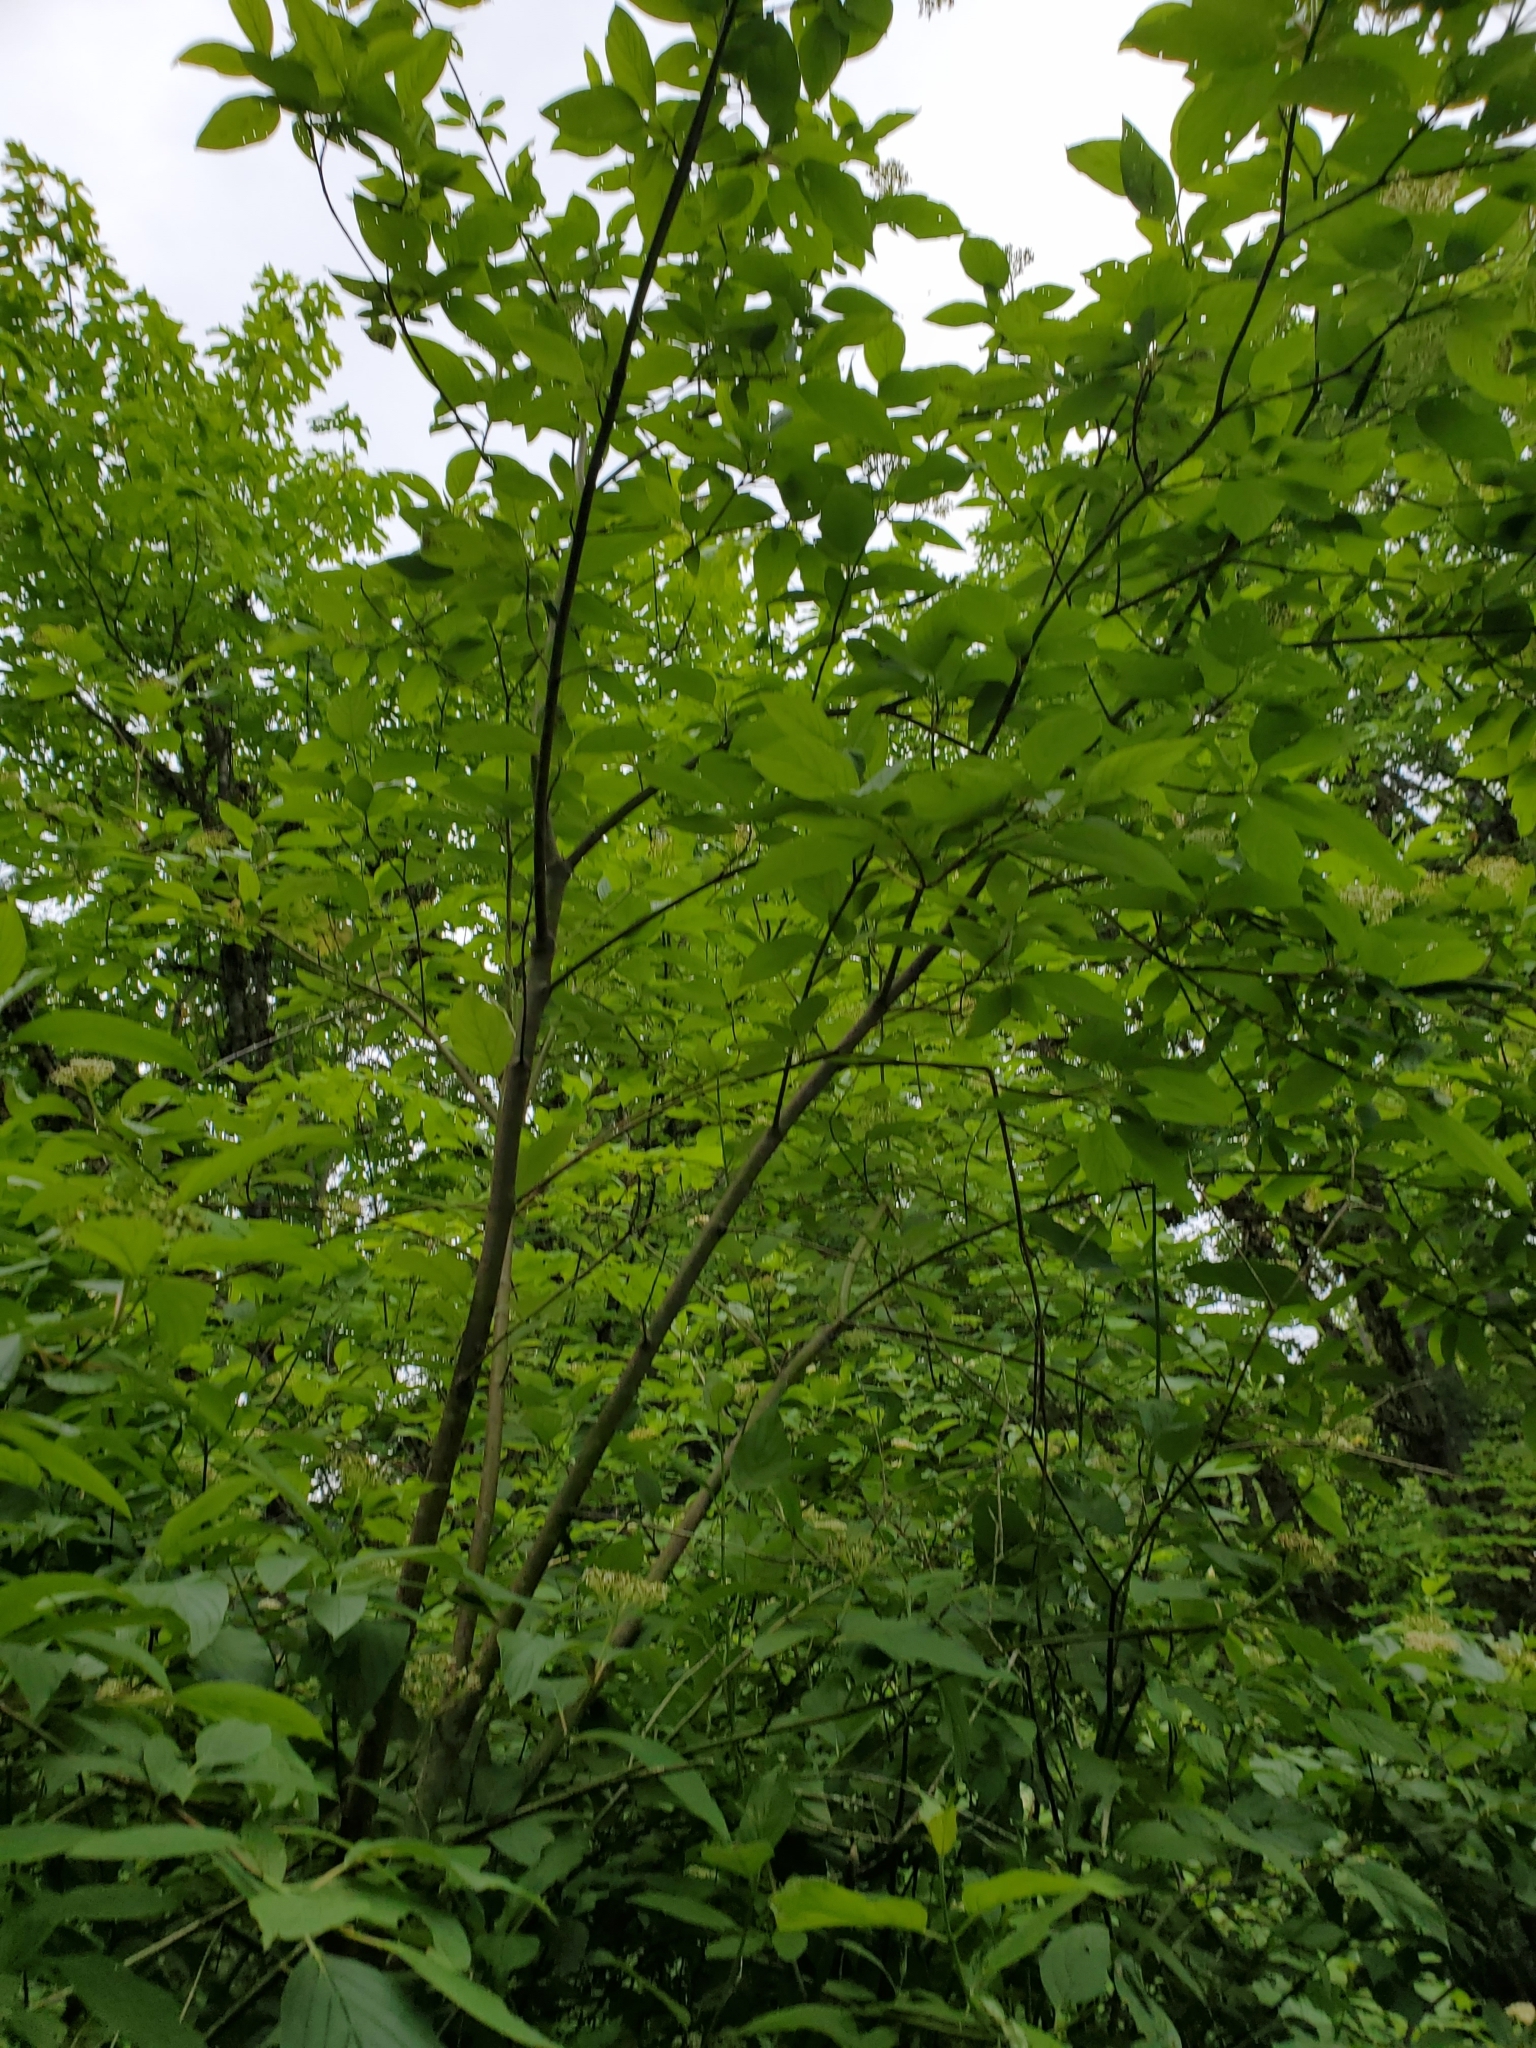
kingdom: Plantae
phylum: Tracheophyta
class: Magnoliopsida
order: Cornales
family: Cornaceae
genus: Cornus
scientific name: Cornus sericea
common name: Red-osier dogwood
